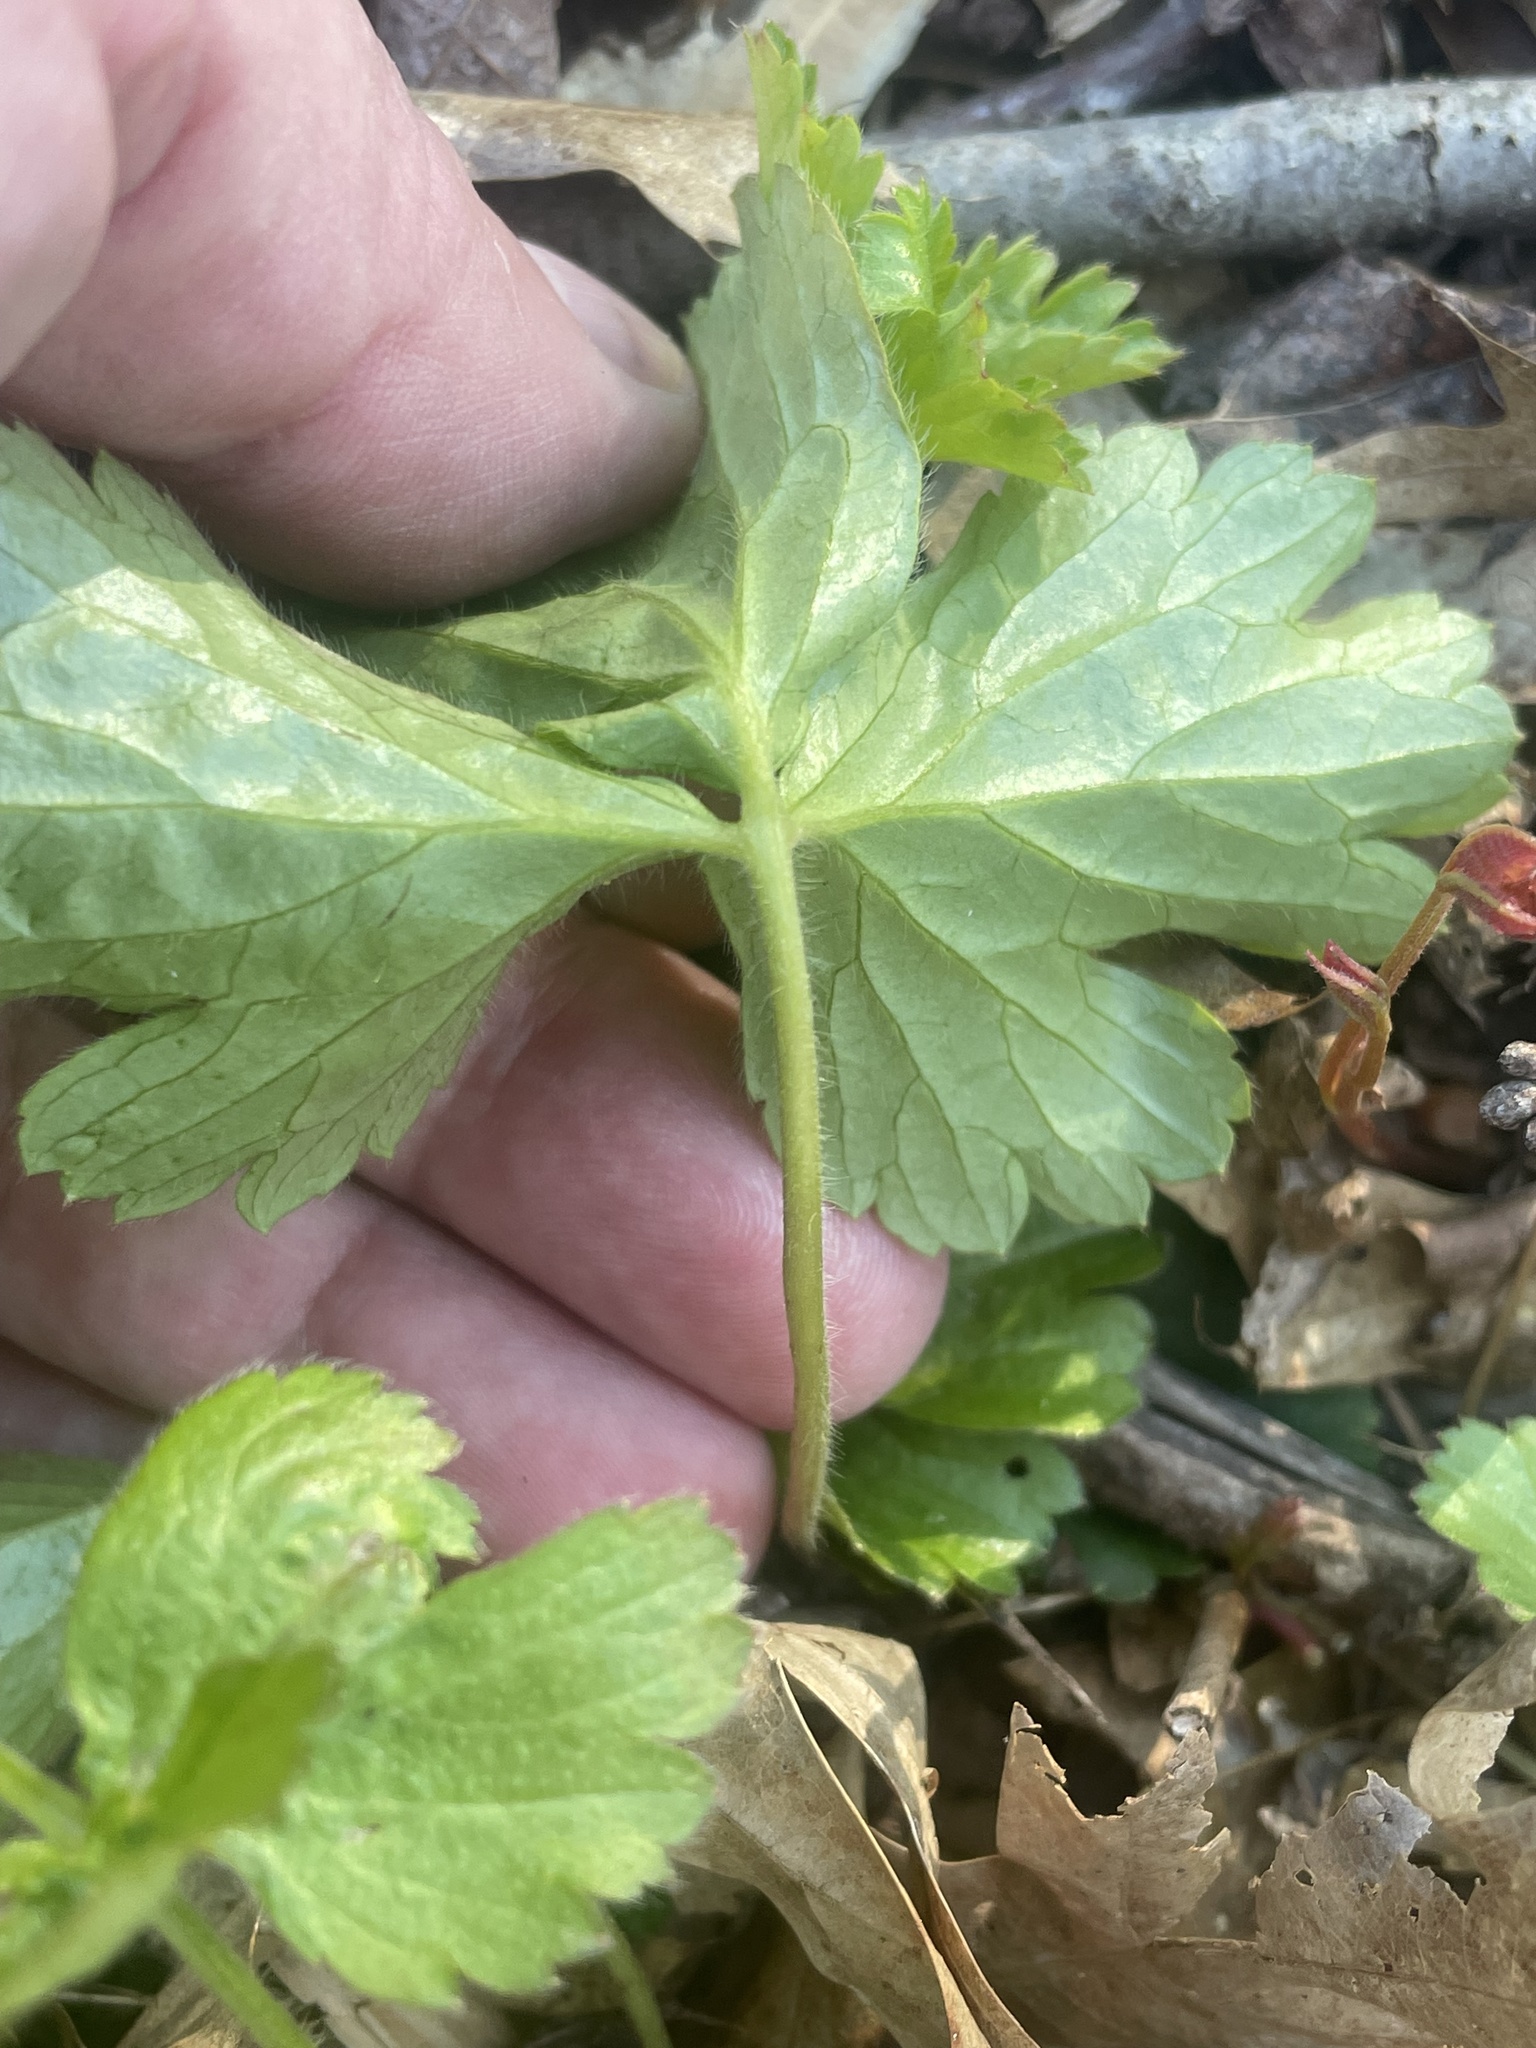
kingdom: Plantae
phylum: Tracheophyta
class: Magnoliopsida
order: Rosales
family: Rosaceae
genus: Geum
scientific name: Geum fragarioides
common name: Appalachian barren strawberry
